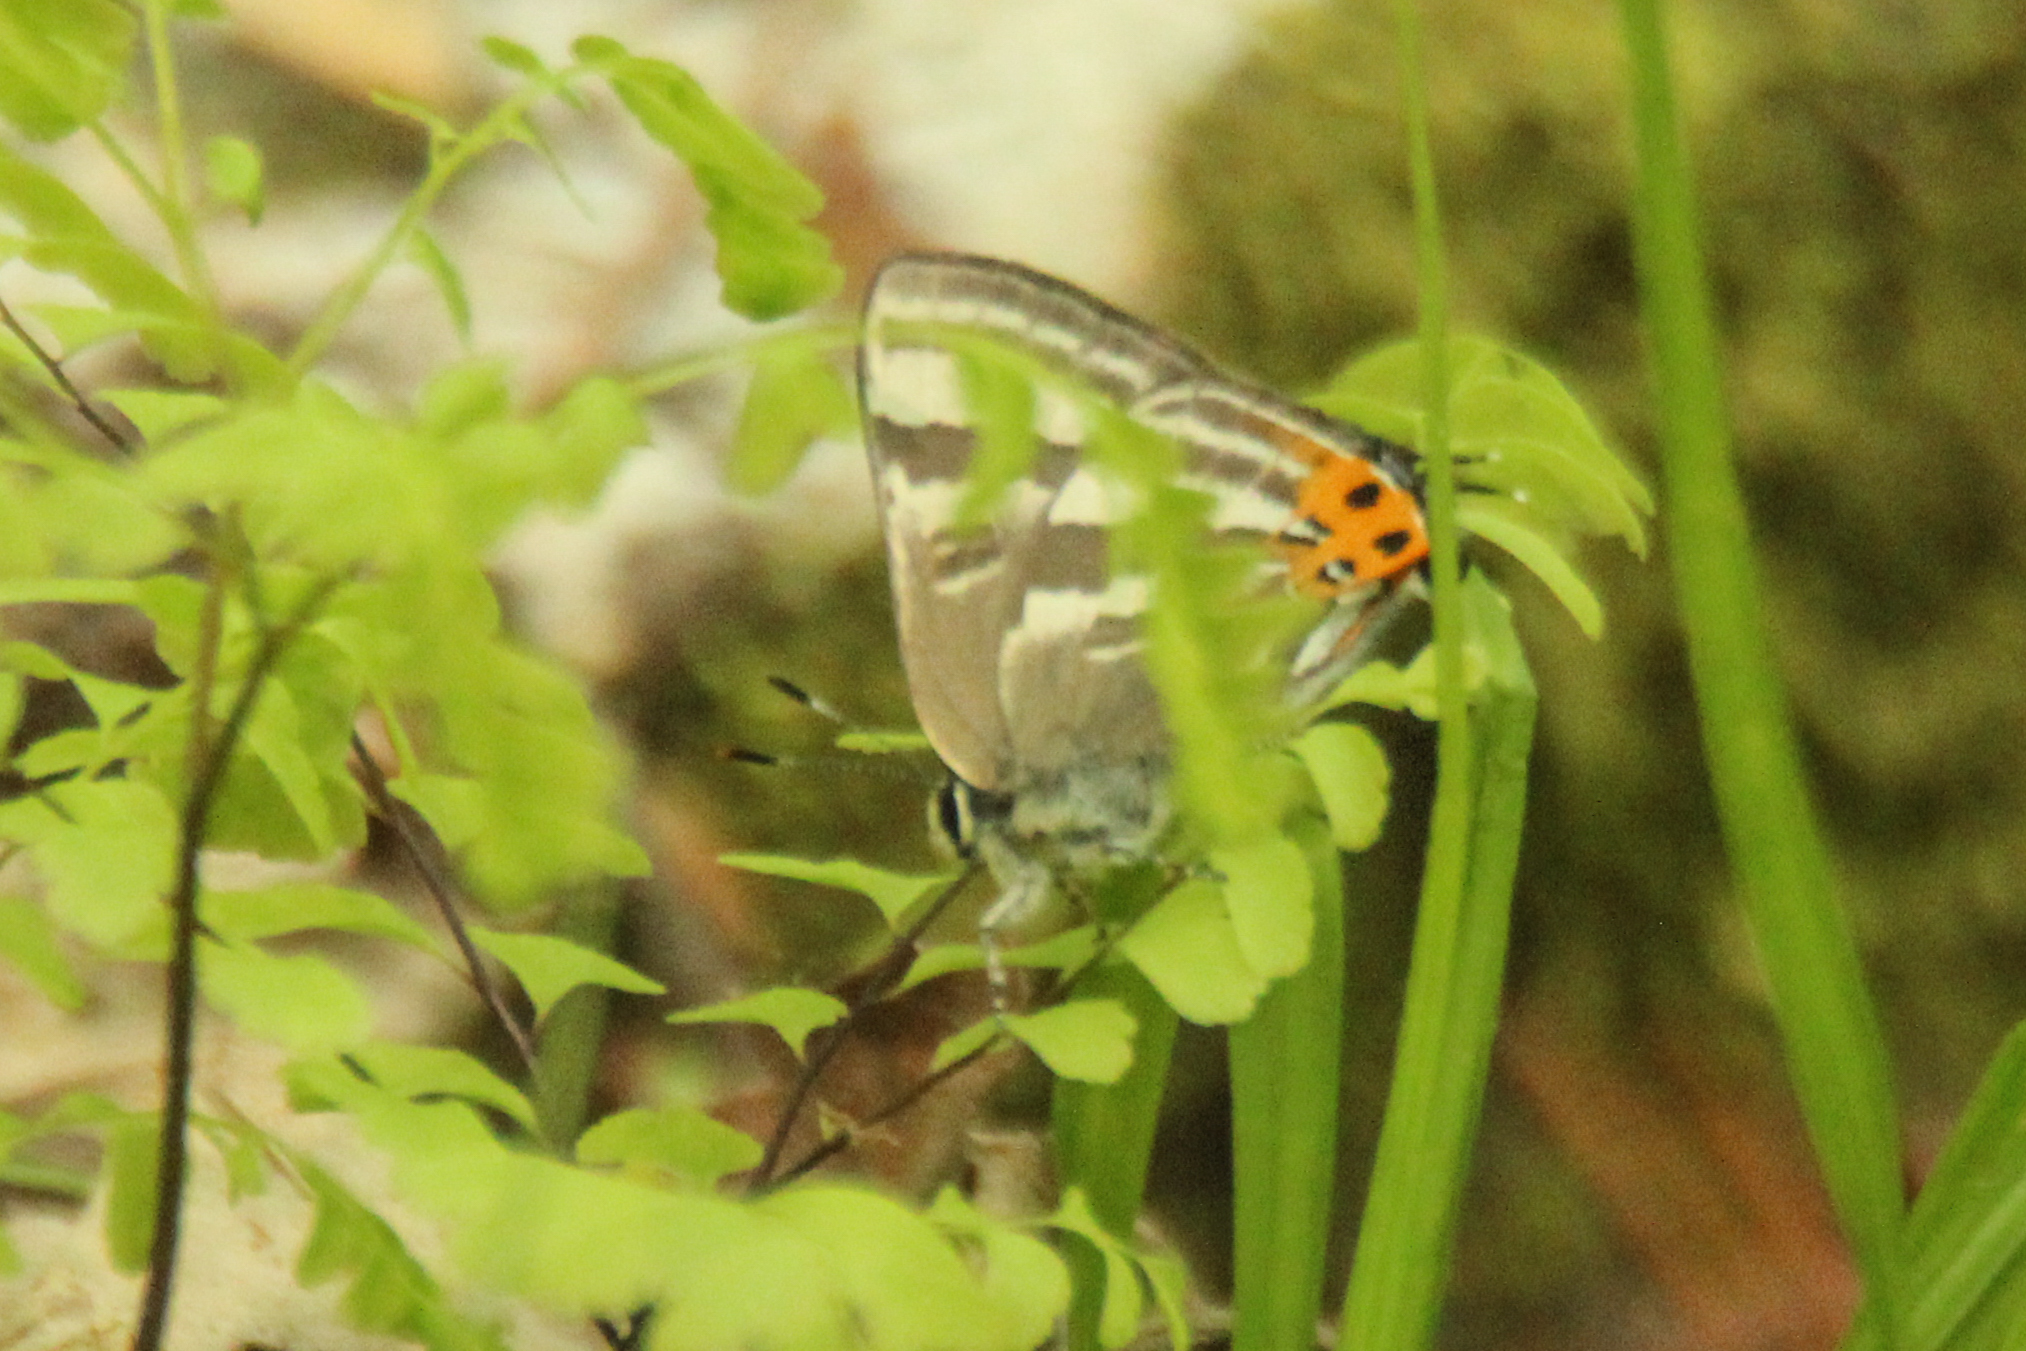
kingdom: Animalia
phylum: Arthropoda
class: Insecta
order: Lepidoptera
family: Lycaenidae
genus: Rapala
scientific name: Rapala arata
